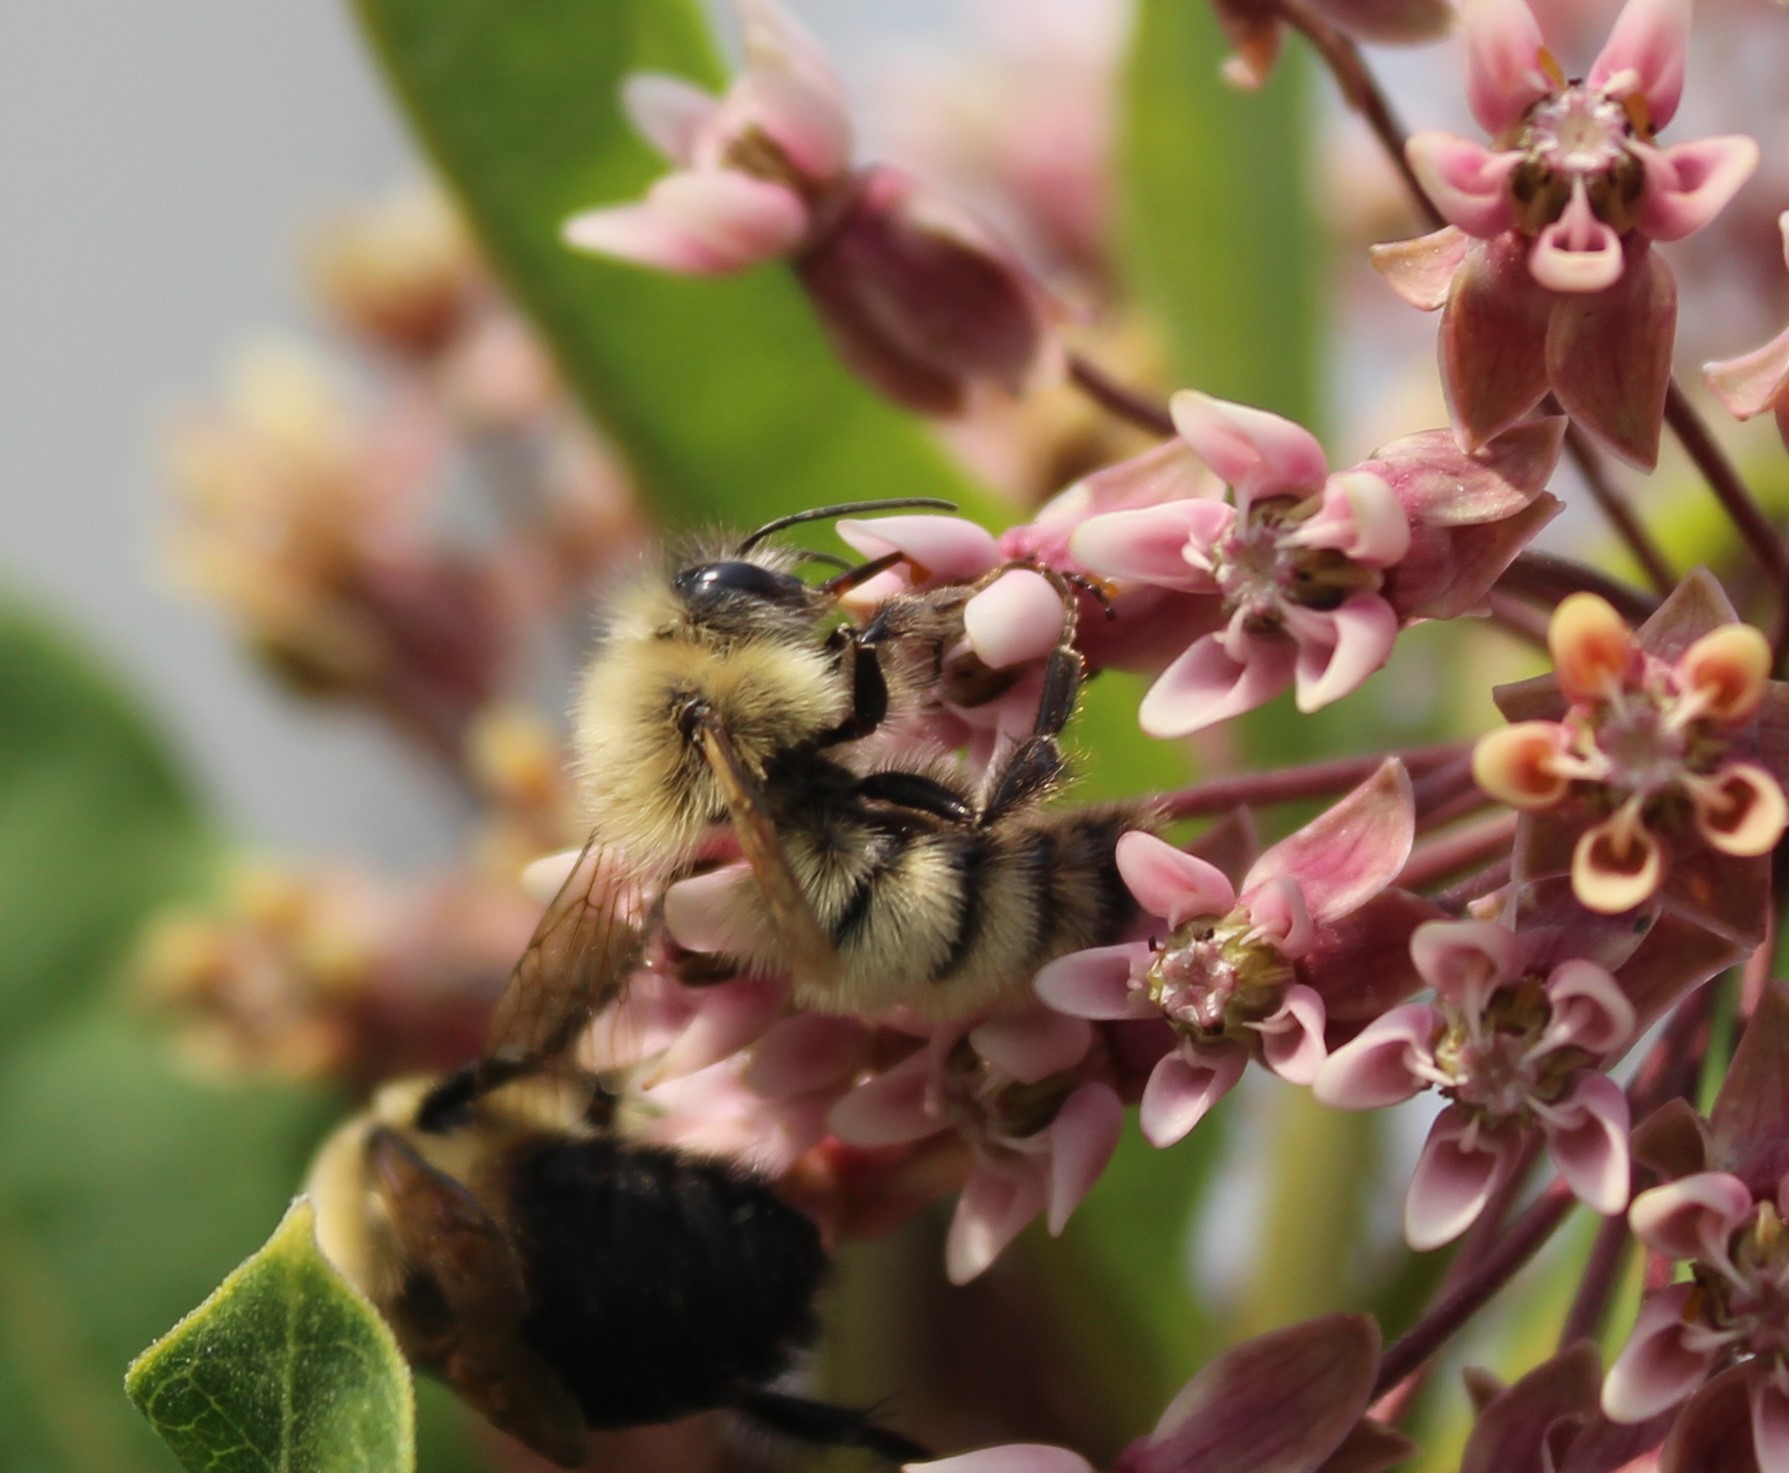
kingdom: Animalia
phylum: Arthropoda
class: Insecta
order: Hymenoptera
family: Apidae
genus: Bombus
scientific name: Bombus perplexus
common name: Confusing bumble bee
